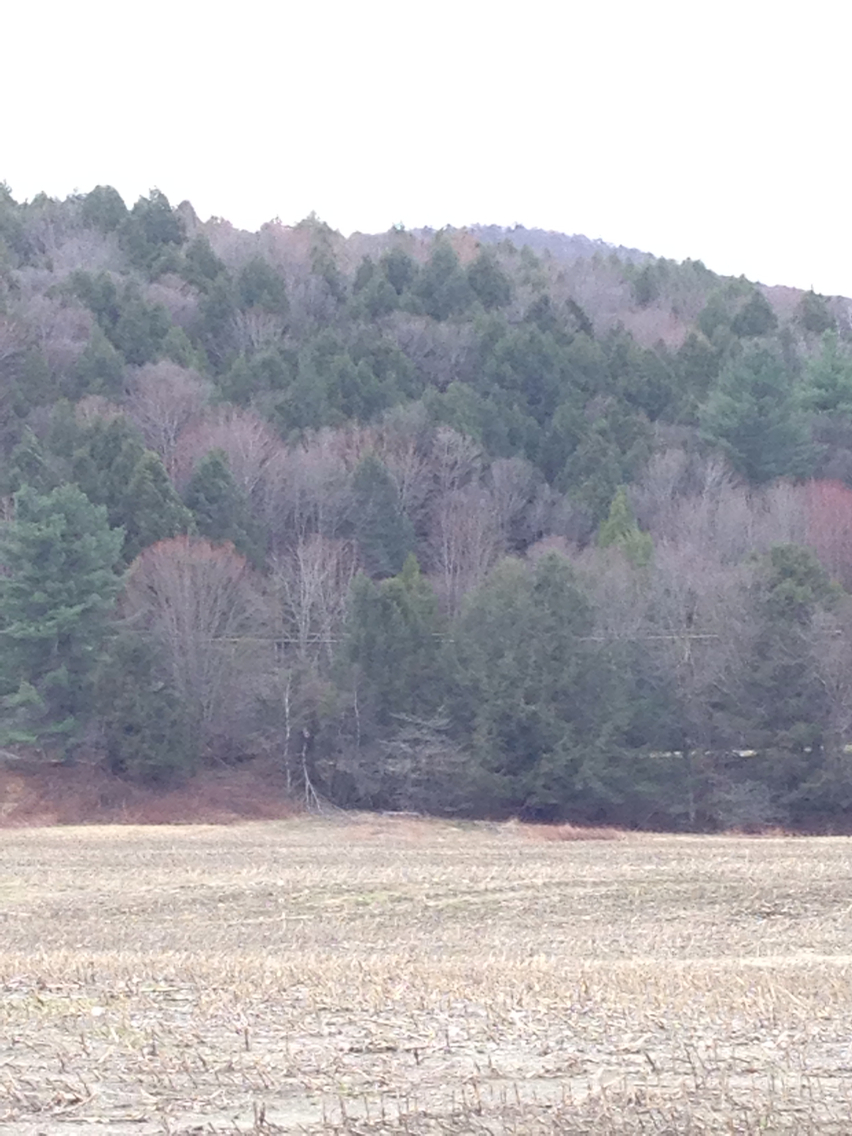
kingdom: Plantae
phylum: Tracheophyta
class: Pinopsida
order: Pinales
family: Pinaceae
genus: Tsuga
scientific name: Tsuga canadensis
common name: Eastern hemlock
